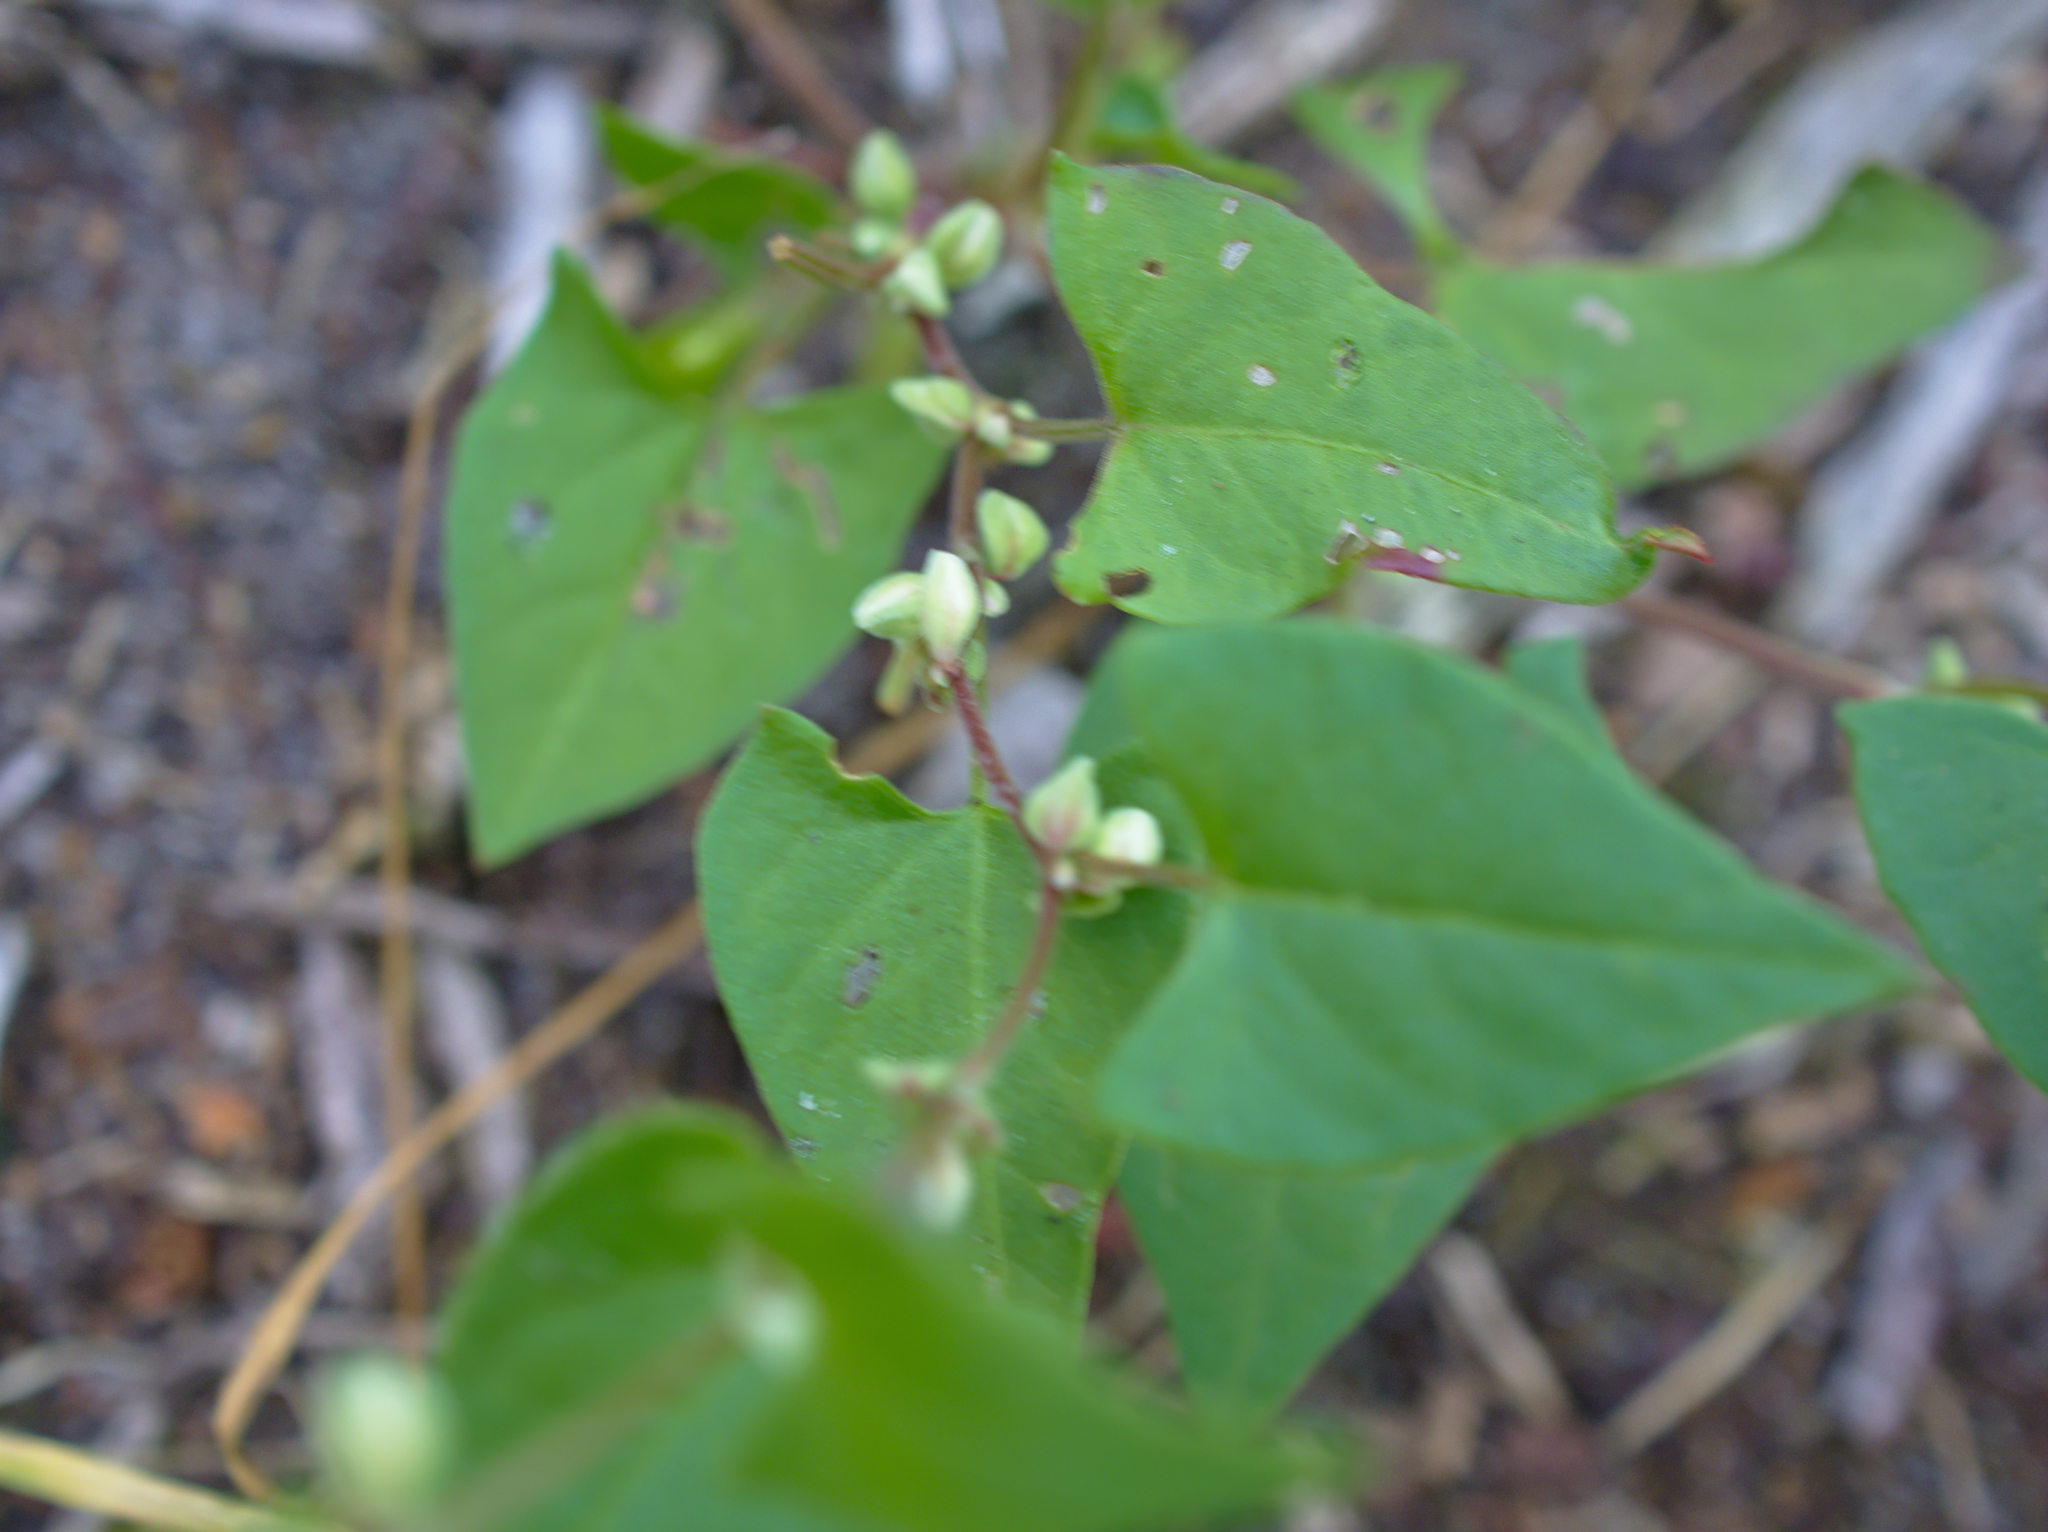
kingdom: Plantae
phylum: Tracheophyta
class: Magnoliopsida
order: Caryophyllales
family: Polygonaceae
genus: Fallopia
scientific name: Fallopia convolvulus
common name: Black bindweed
